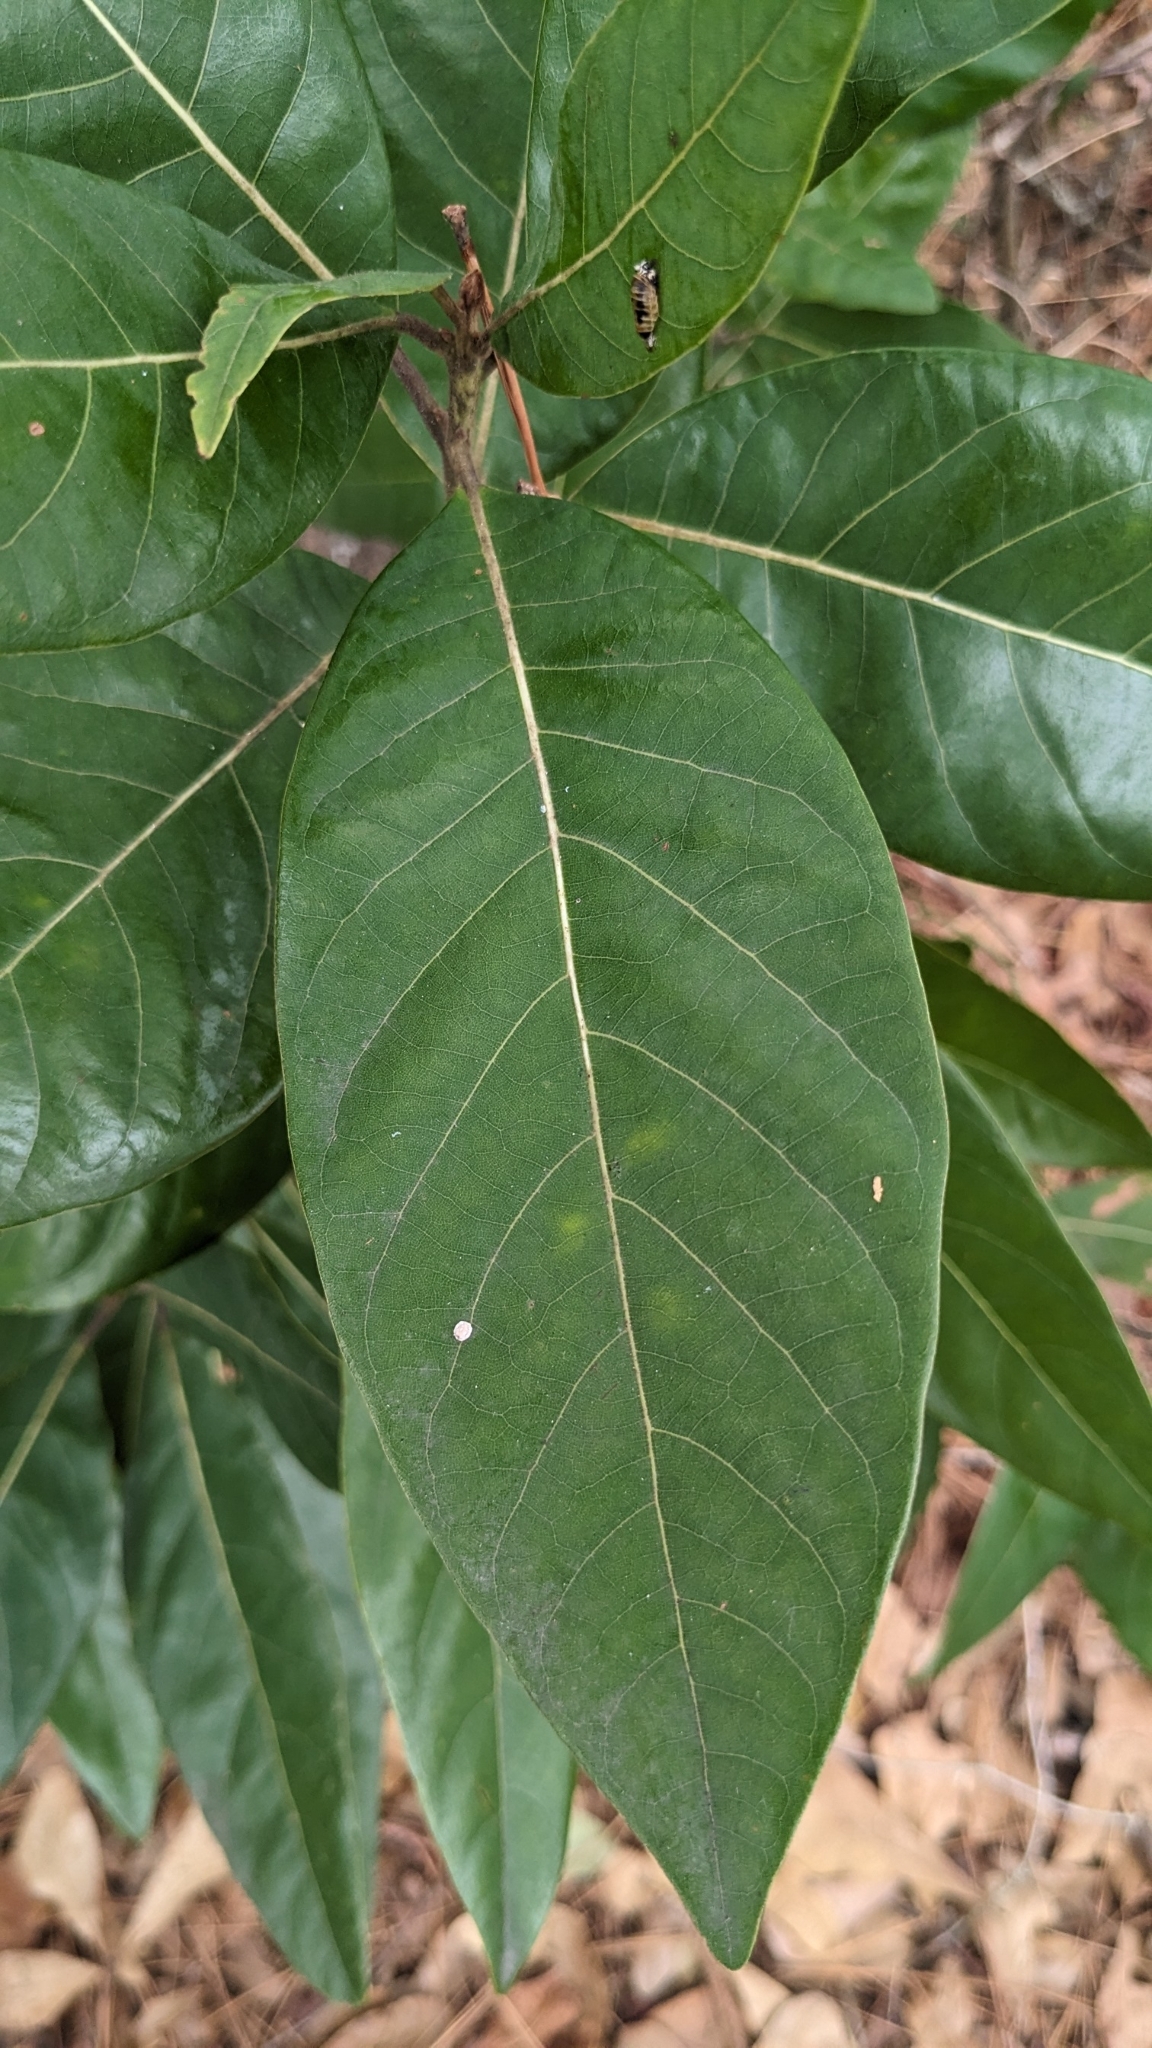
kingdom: Plantae
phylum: Tracheophyta
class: Magnoliopsida
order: Laurales
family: Lauraceae
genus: Persea
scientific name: Persea palustris
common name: Swampbay
